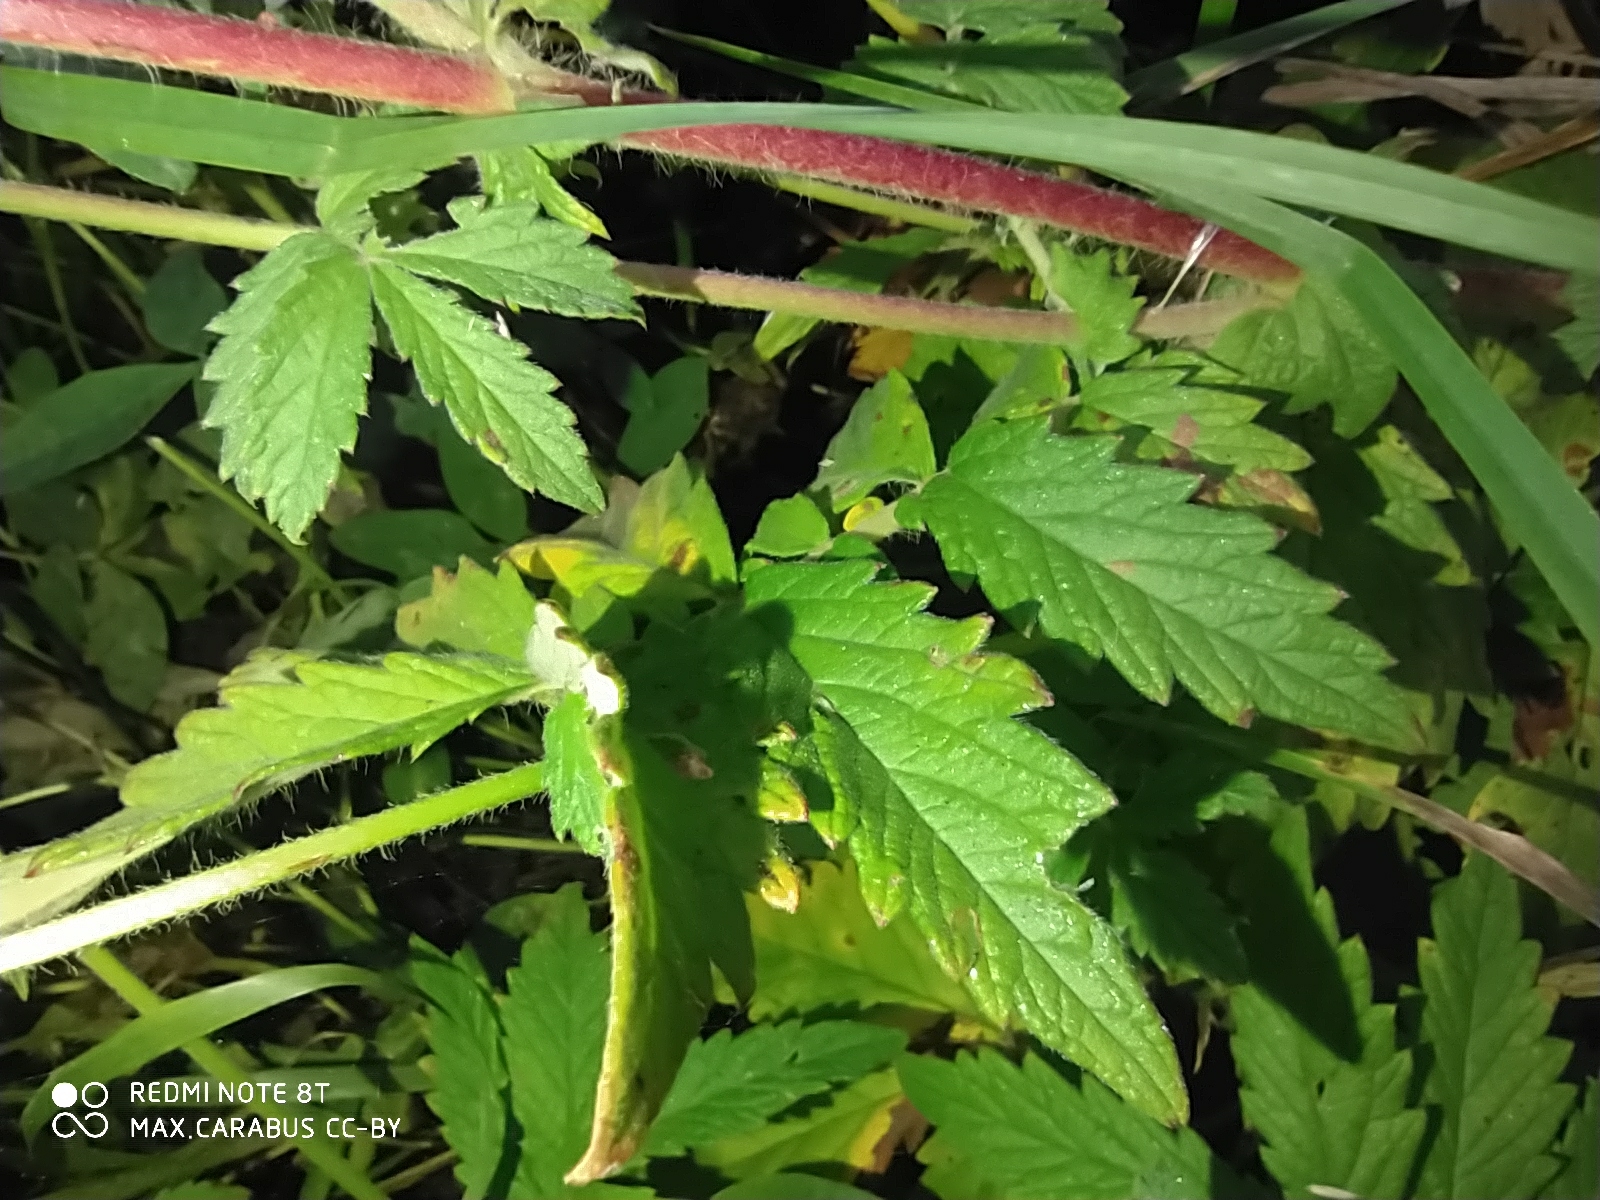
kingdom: Plantae
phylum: Tracheophyta
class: Magnoliopsida
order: Rosales
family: Rosaceae
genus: Agrimonia
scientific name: Agrimonia eupatoria
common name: Agrimony
